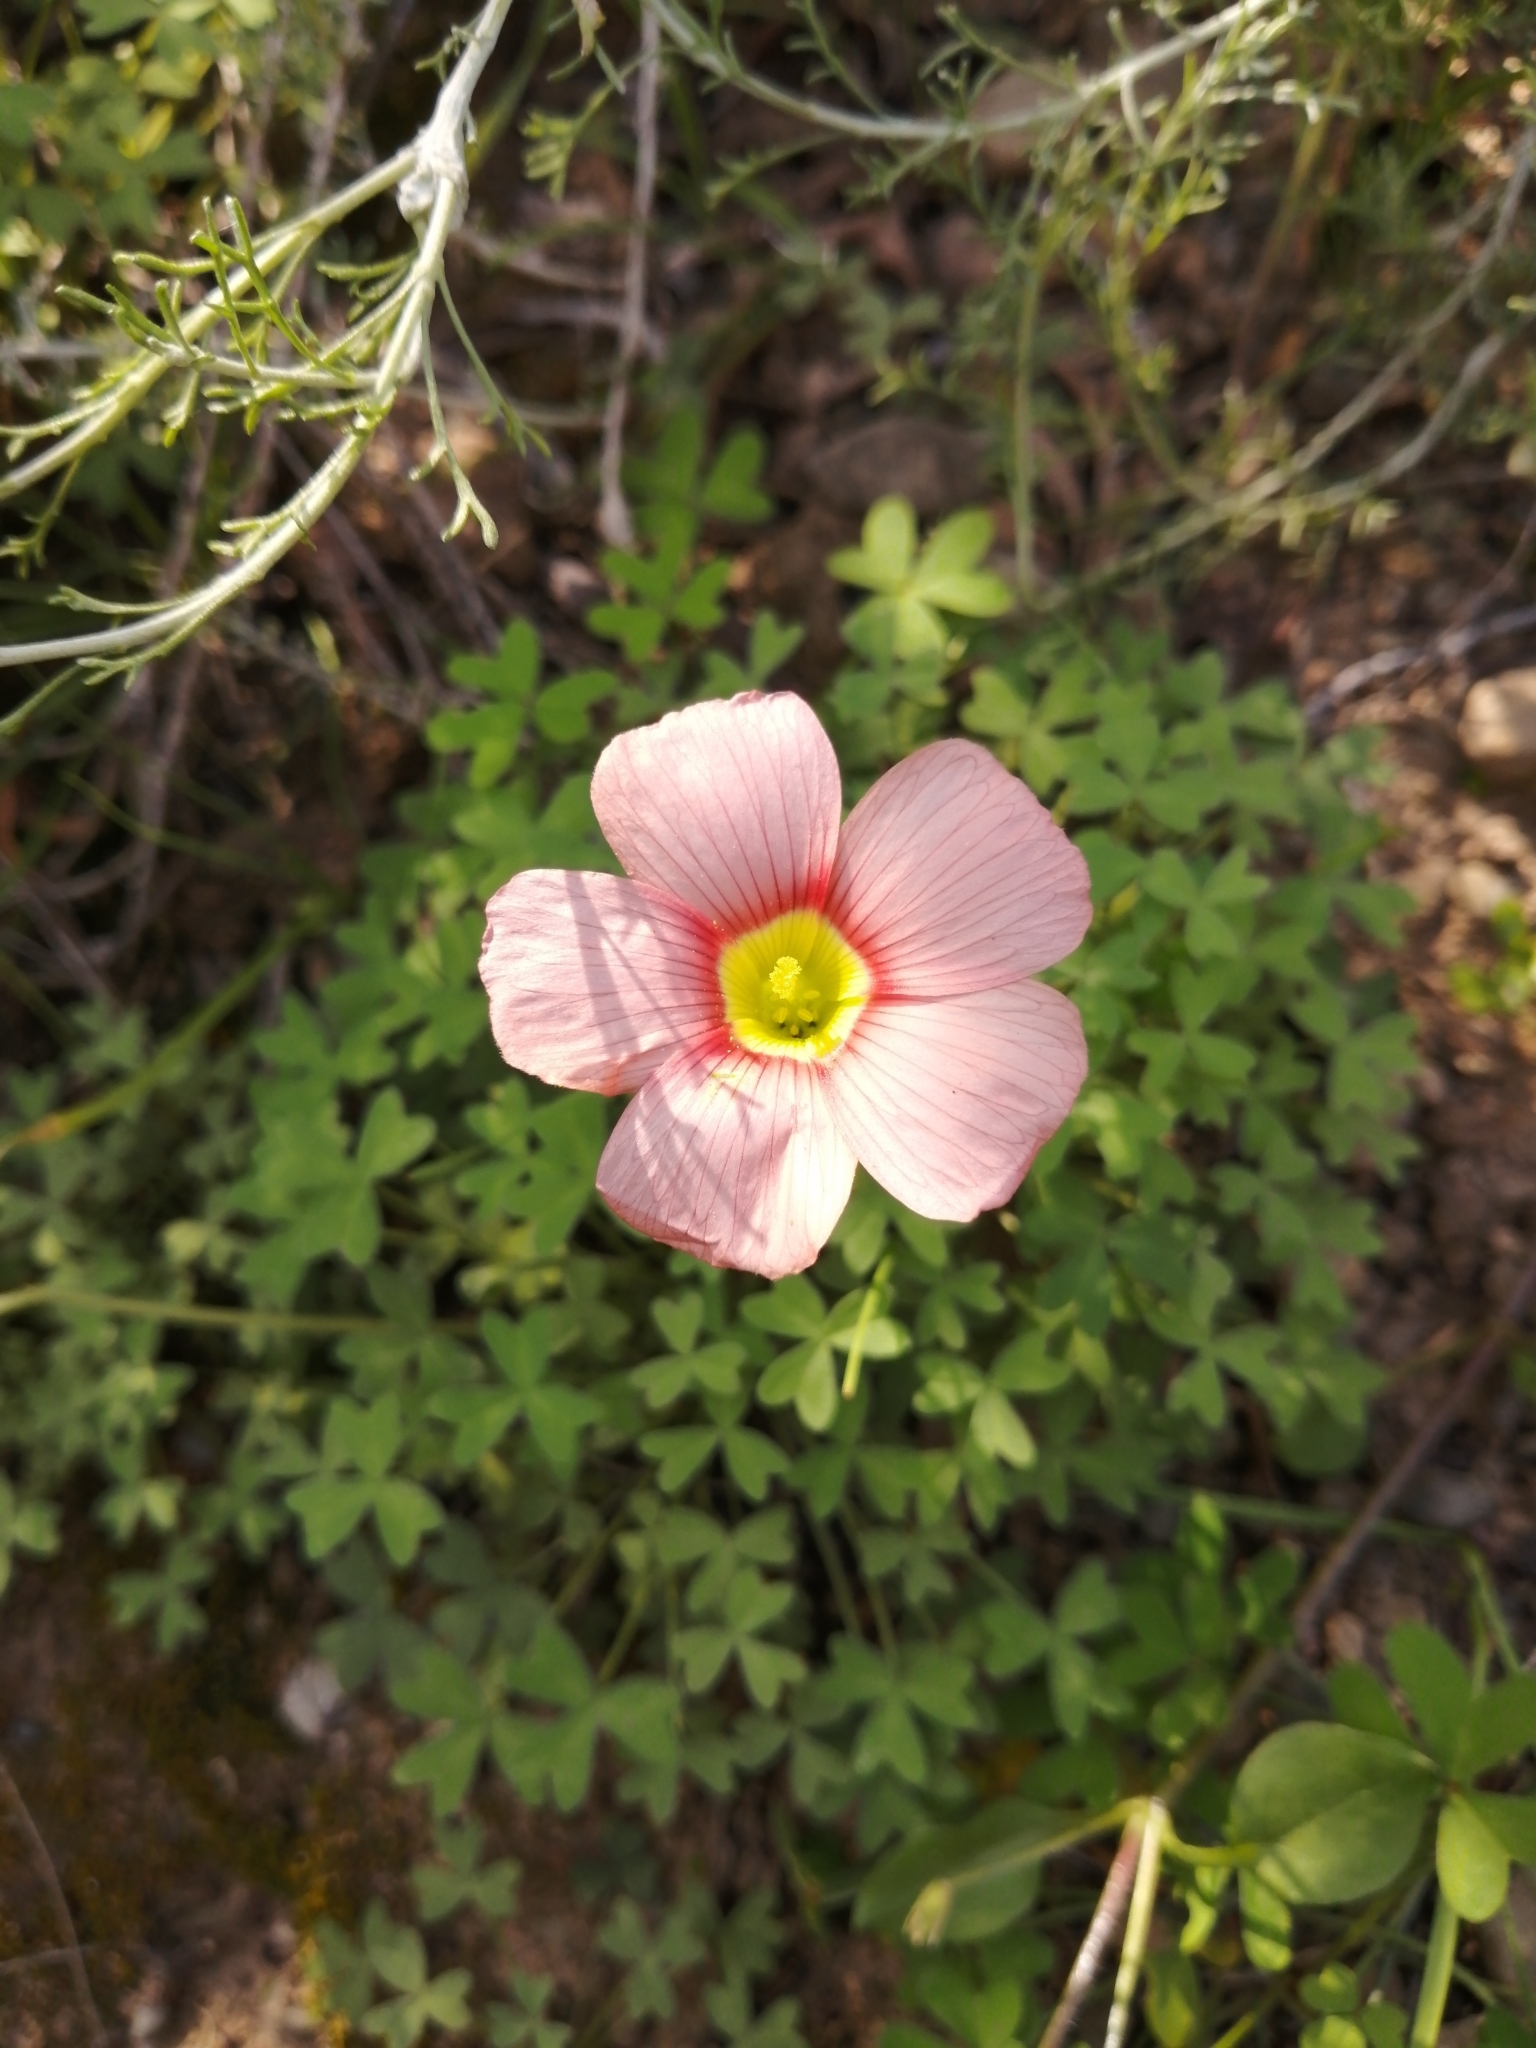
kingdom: Plantae
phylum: Tracheophyta
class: Magnoliopsida
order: Oxalidales
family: Oxalidaceae
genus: Oxalis
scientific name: Oxalis obtusa
